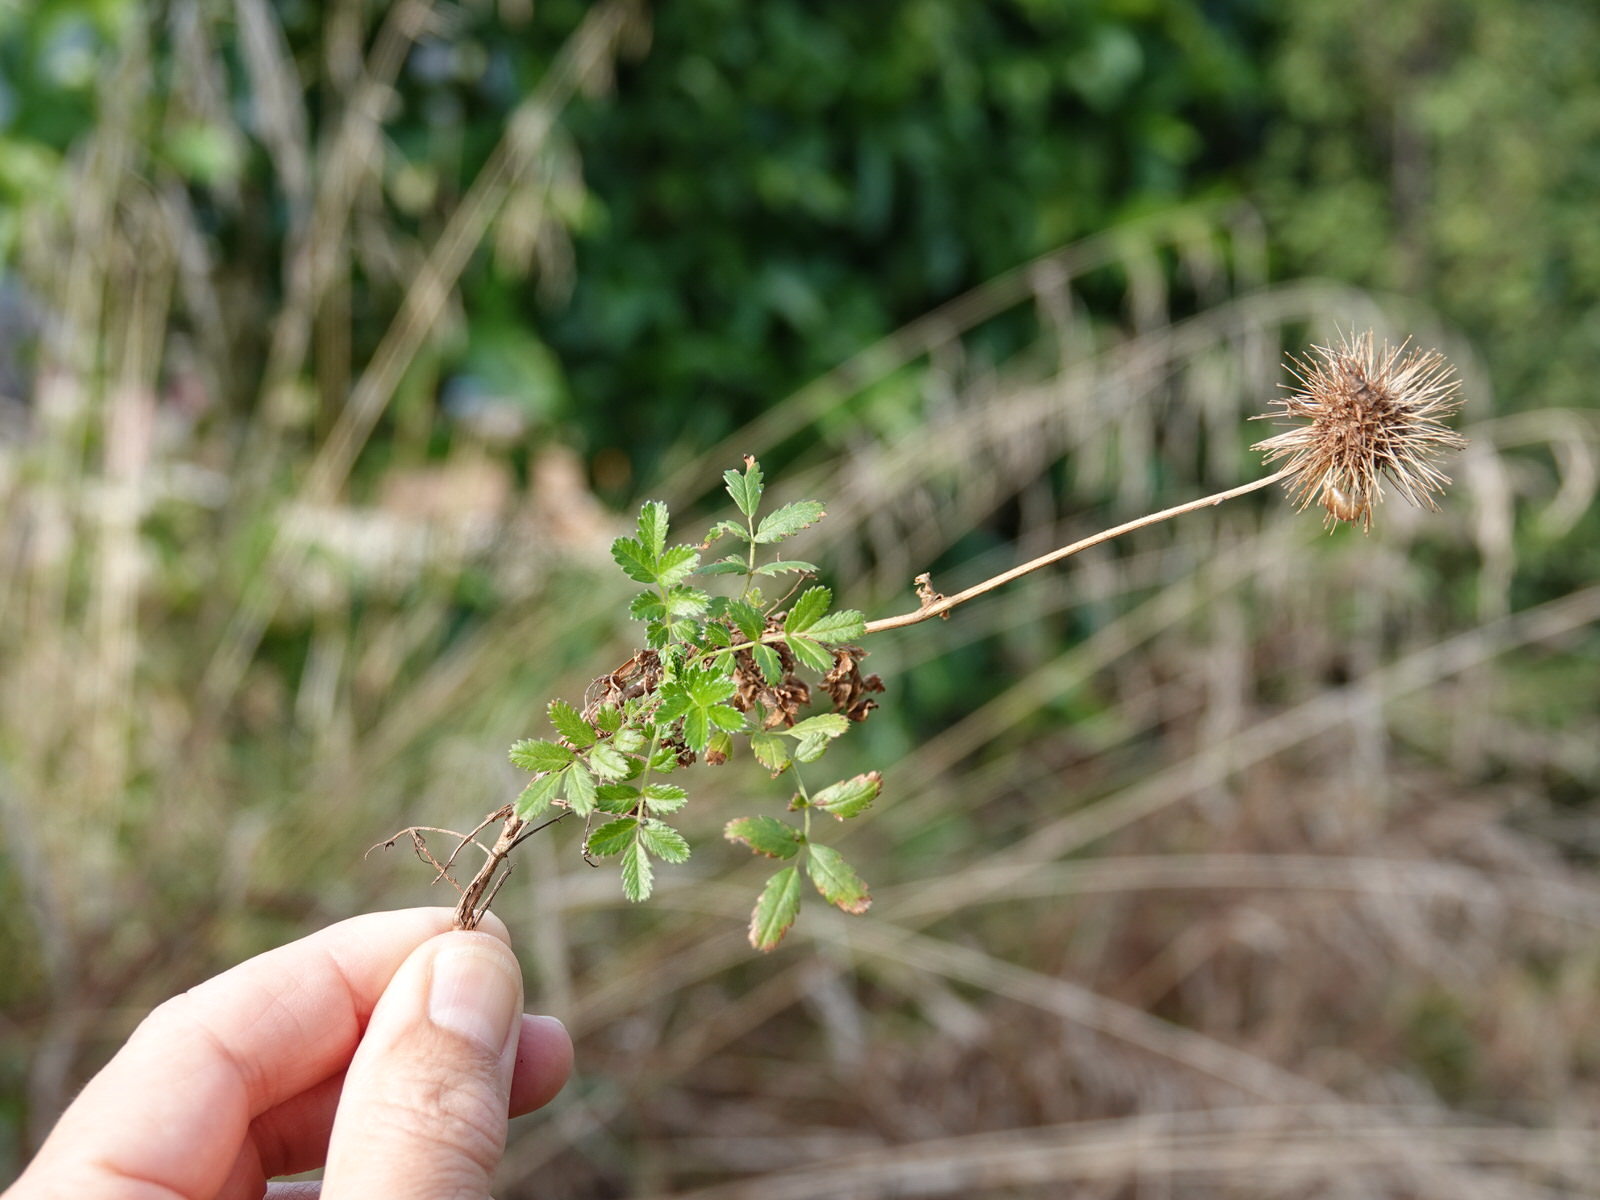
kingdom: Plantae
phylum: Tracheophyta
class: Magnoliopsida
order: Rosales
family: Rosaceae
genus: Acaena
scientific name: Acaena novae-zelandiae
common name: Pirri-pirri-bur
